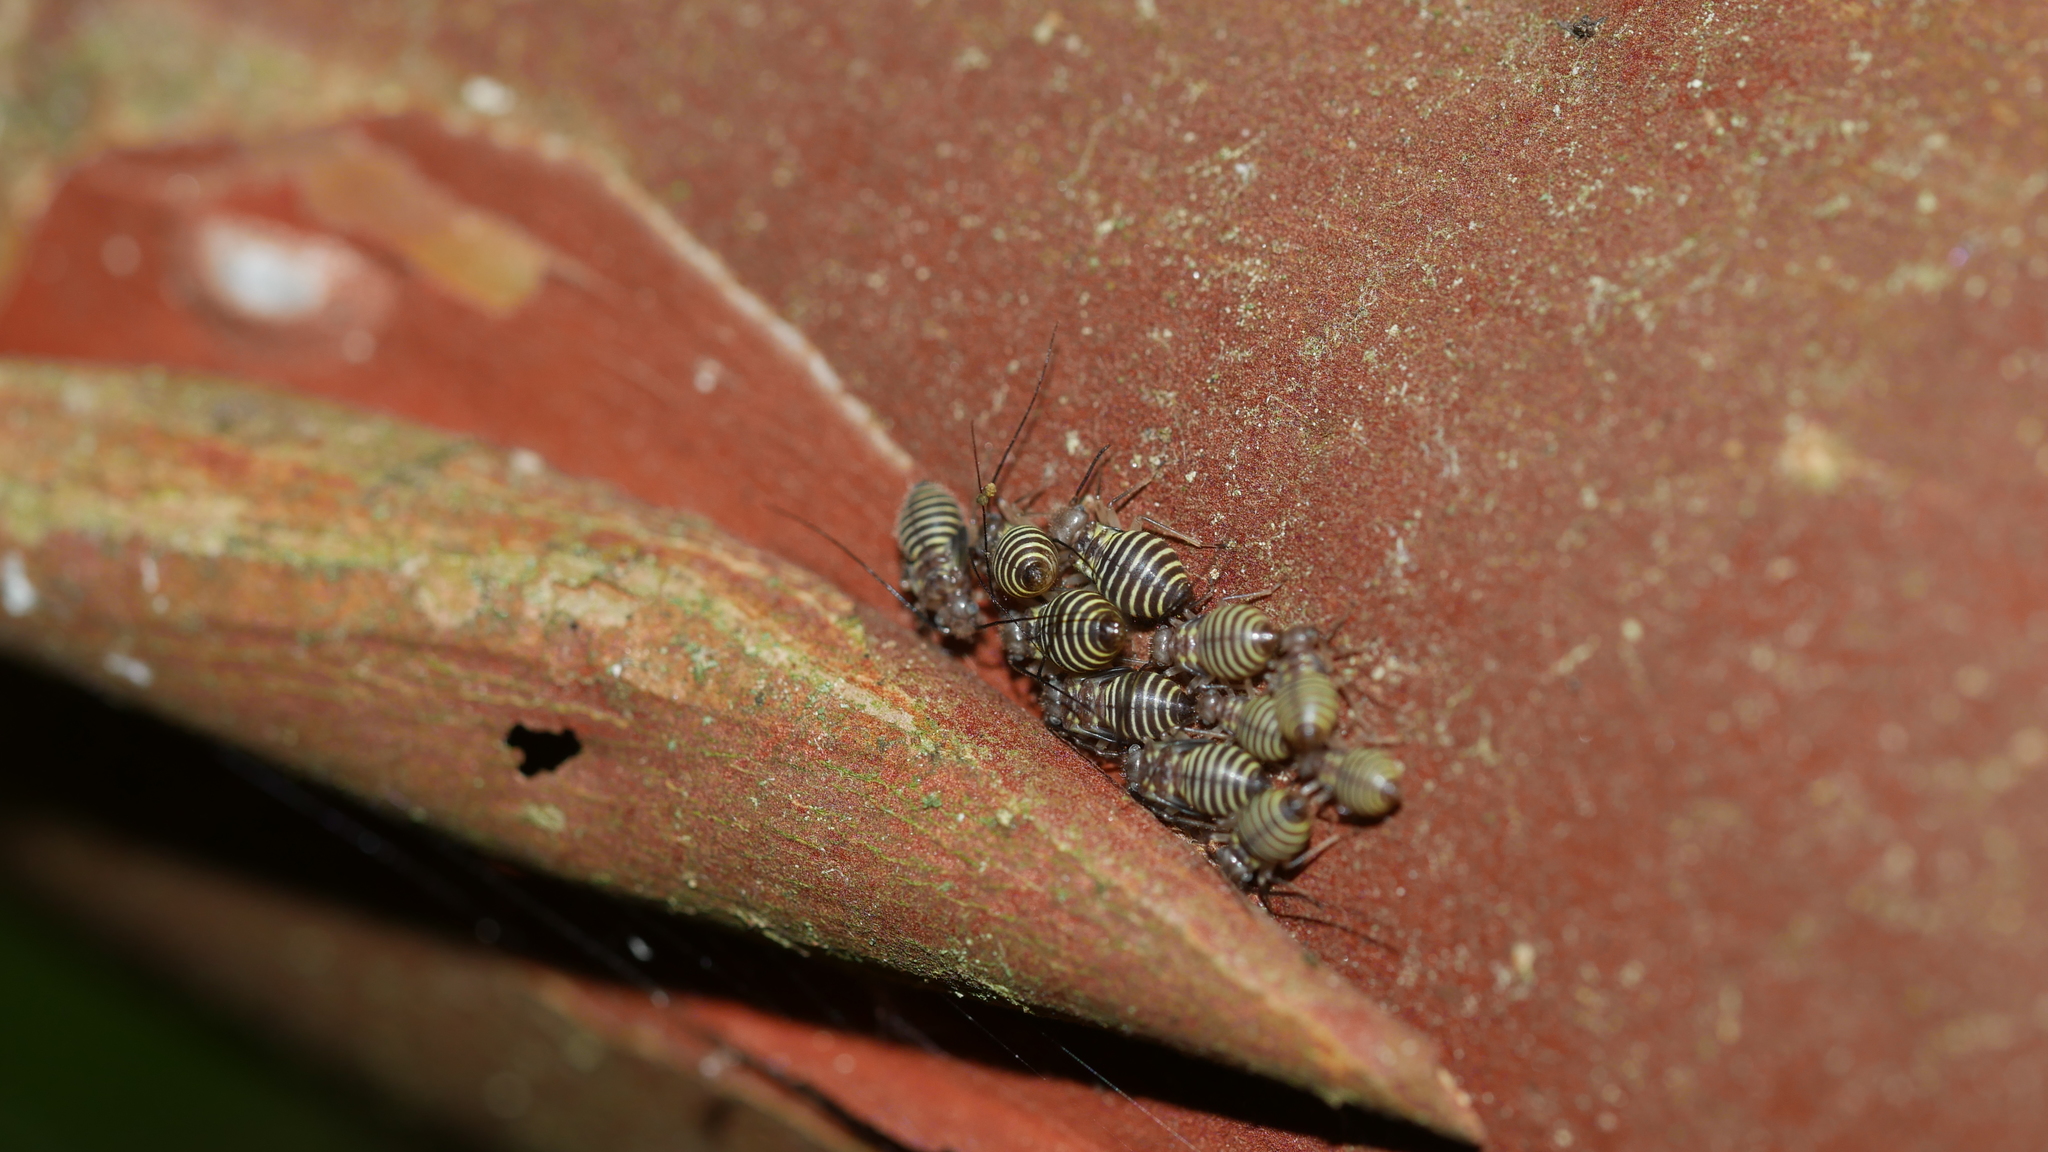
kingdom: Animalia
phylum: Arthropoda
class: Insecta
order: Psocodea
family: Psocidae
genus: Cerastipsocus
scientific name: Cerastipsocus venosus
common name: Tree cattle
